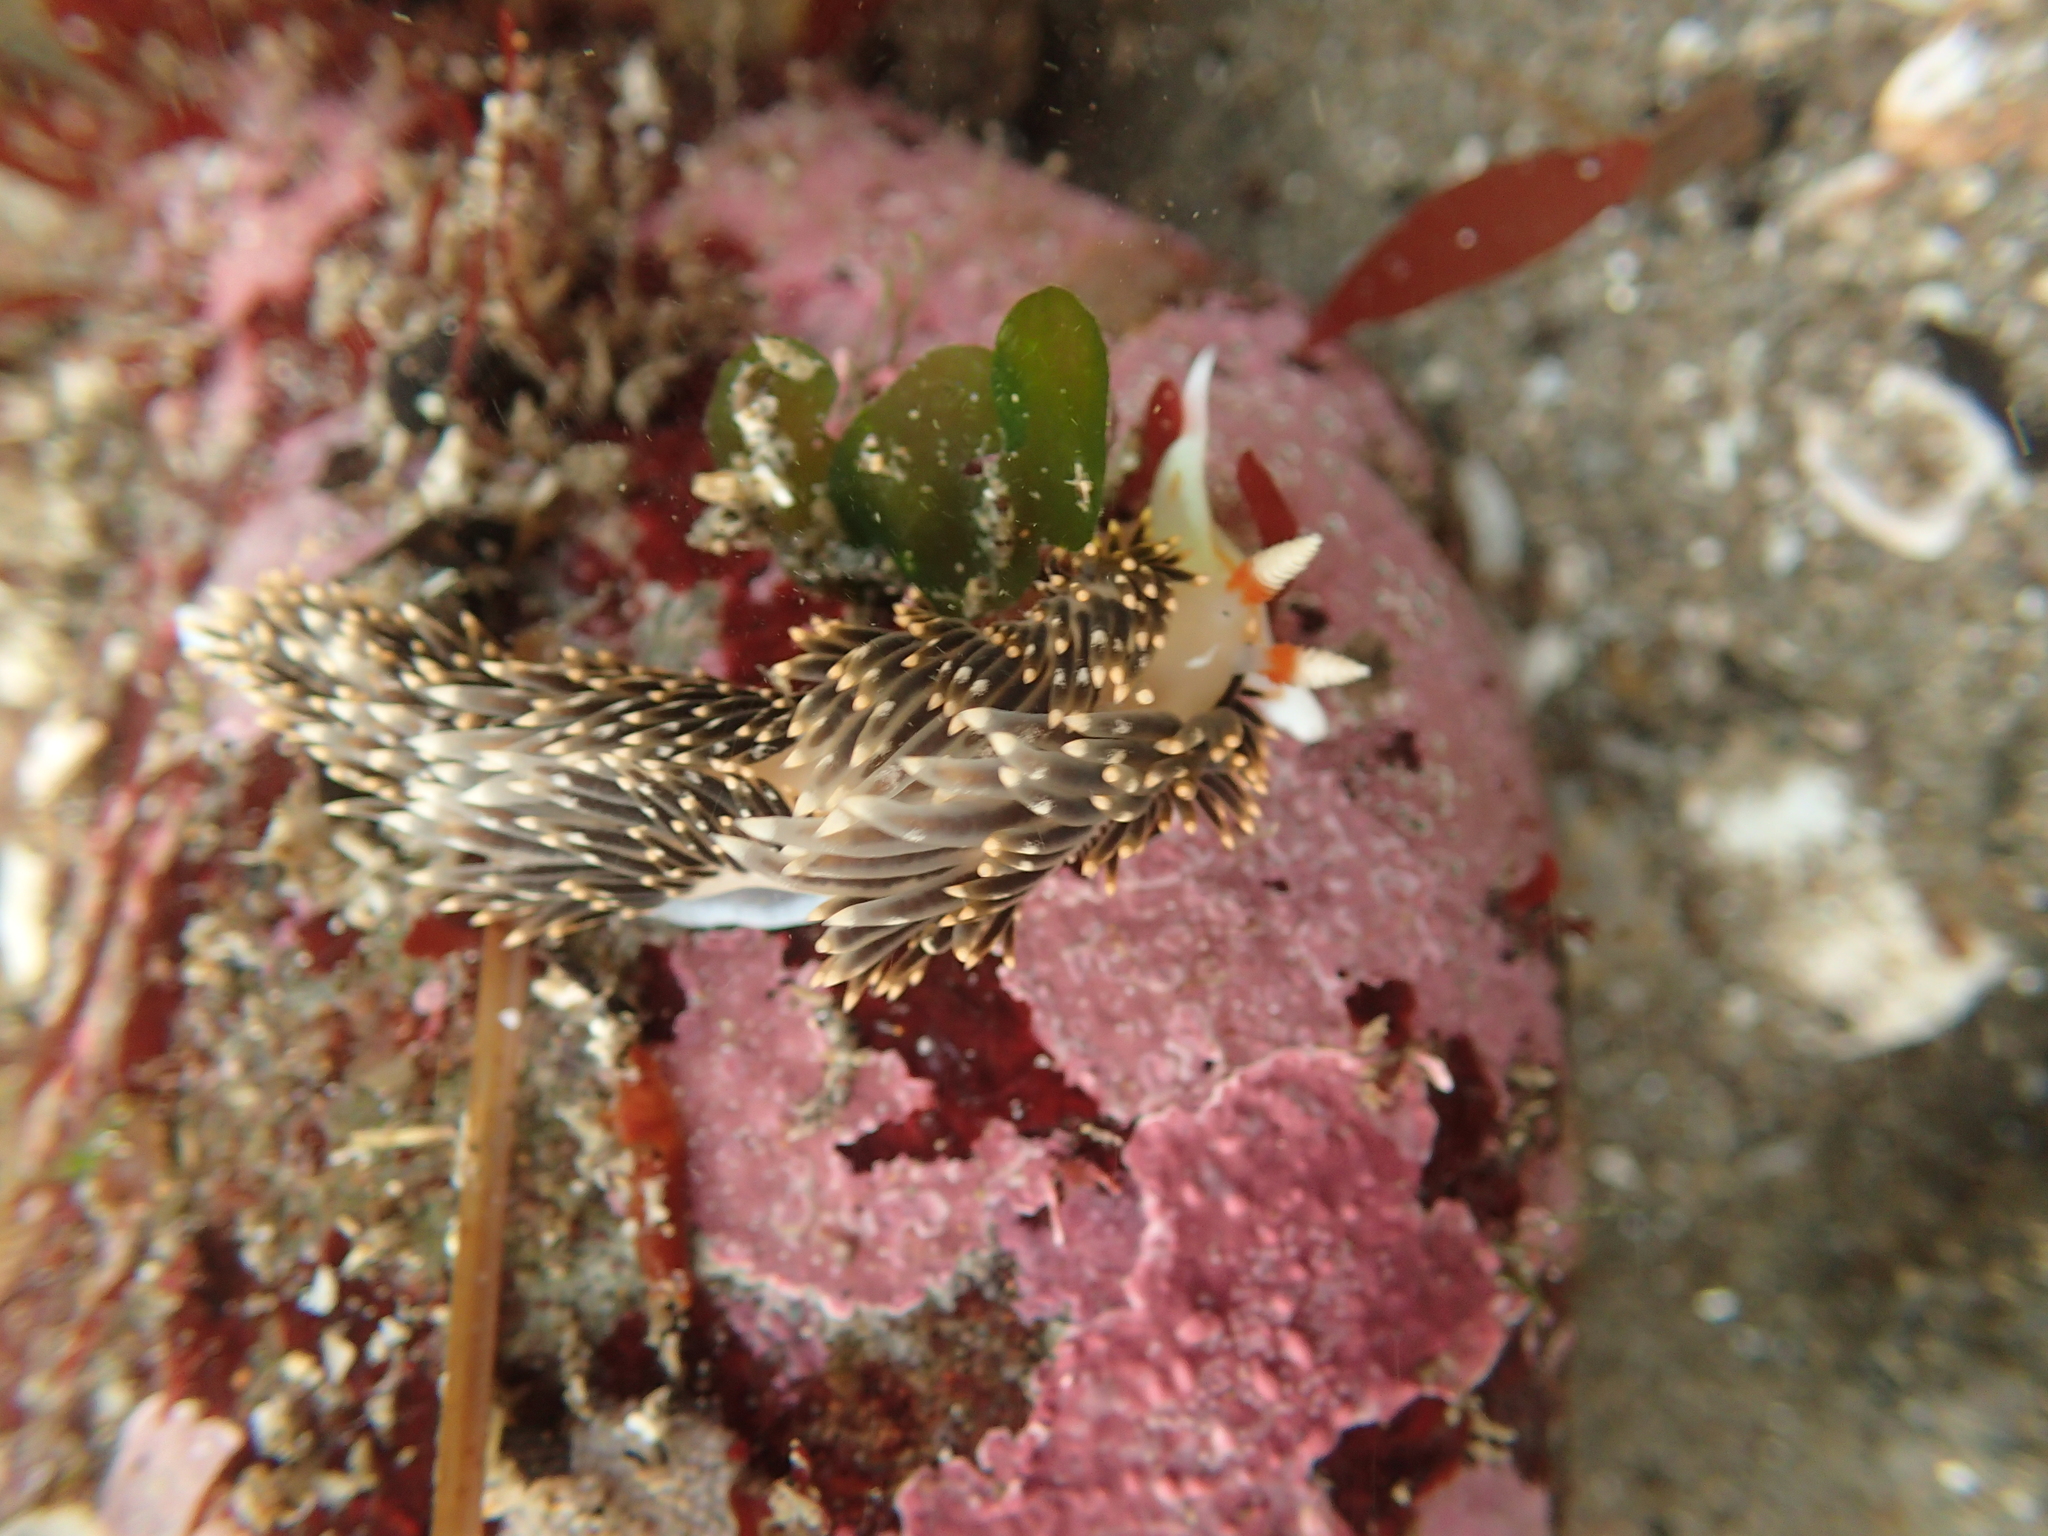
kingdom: Animalia
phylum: Mollusca
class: Gastropoda
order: Nudibranchia
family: Facelinidae
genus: Phidiana
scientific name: Phidiana hiltoni
